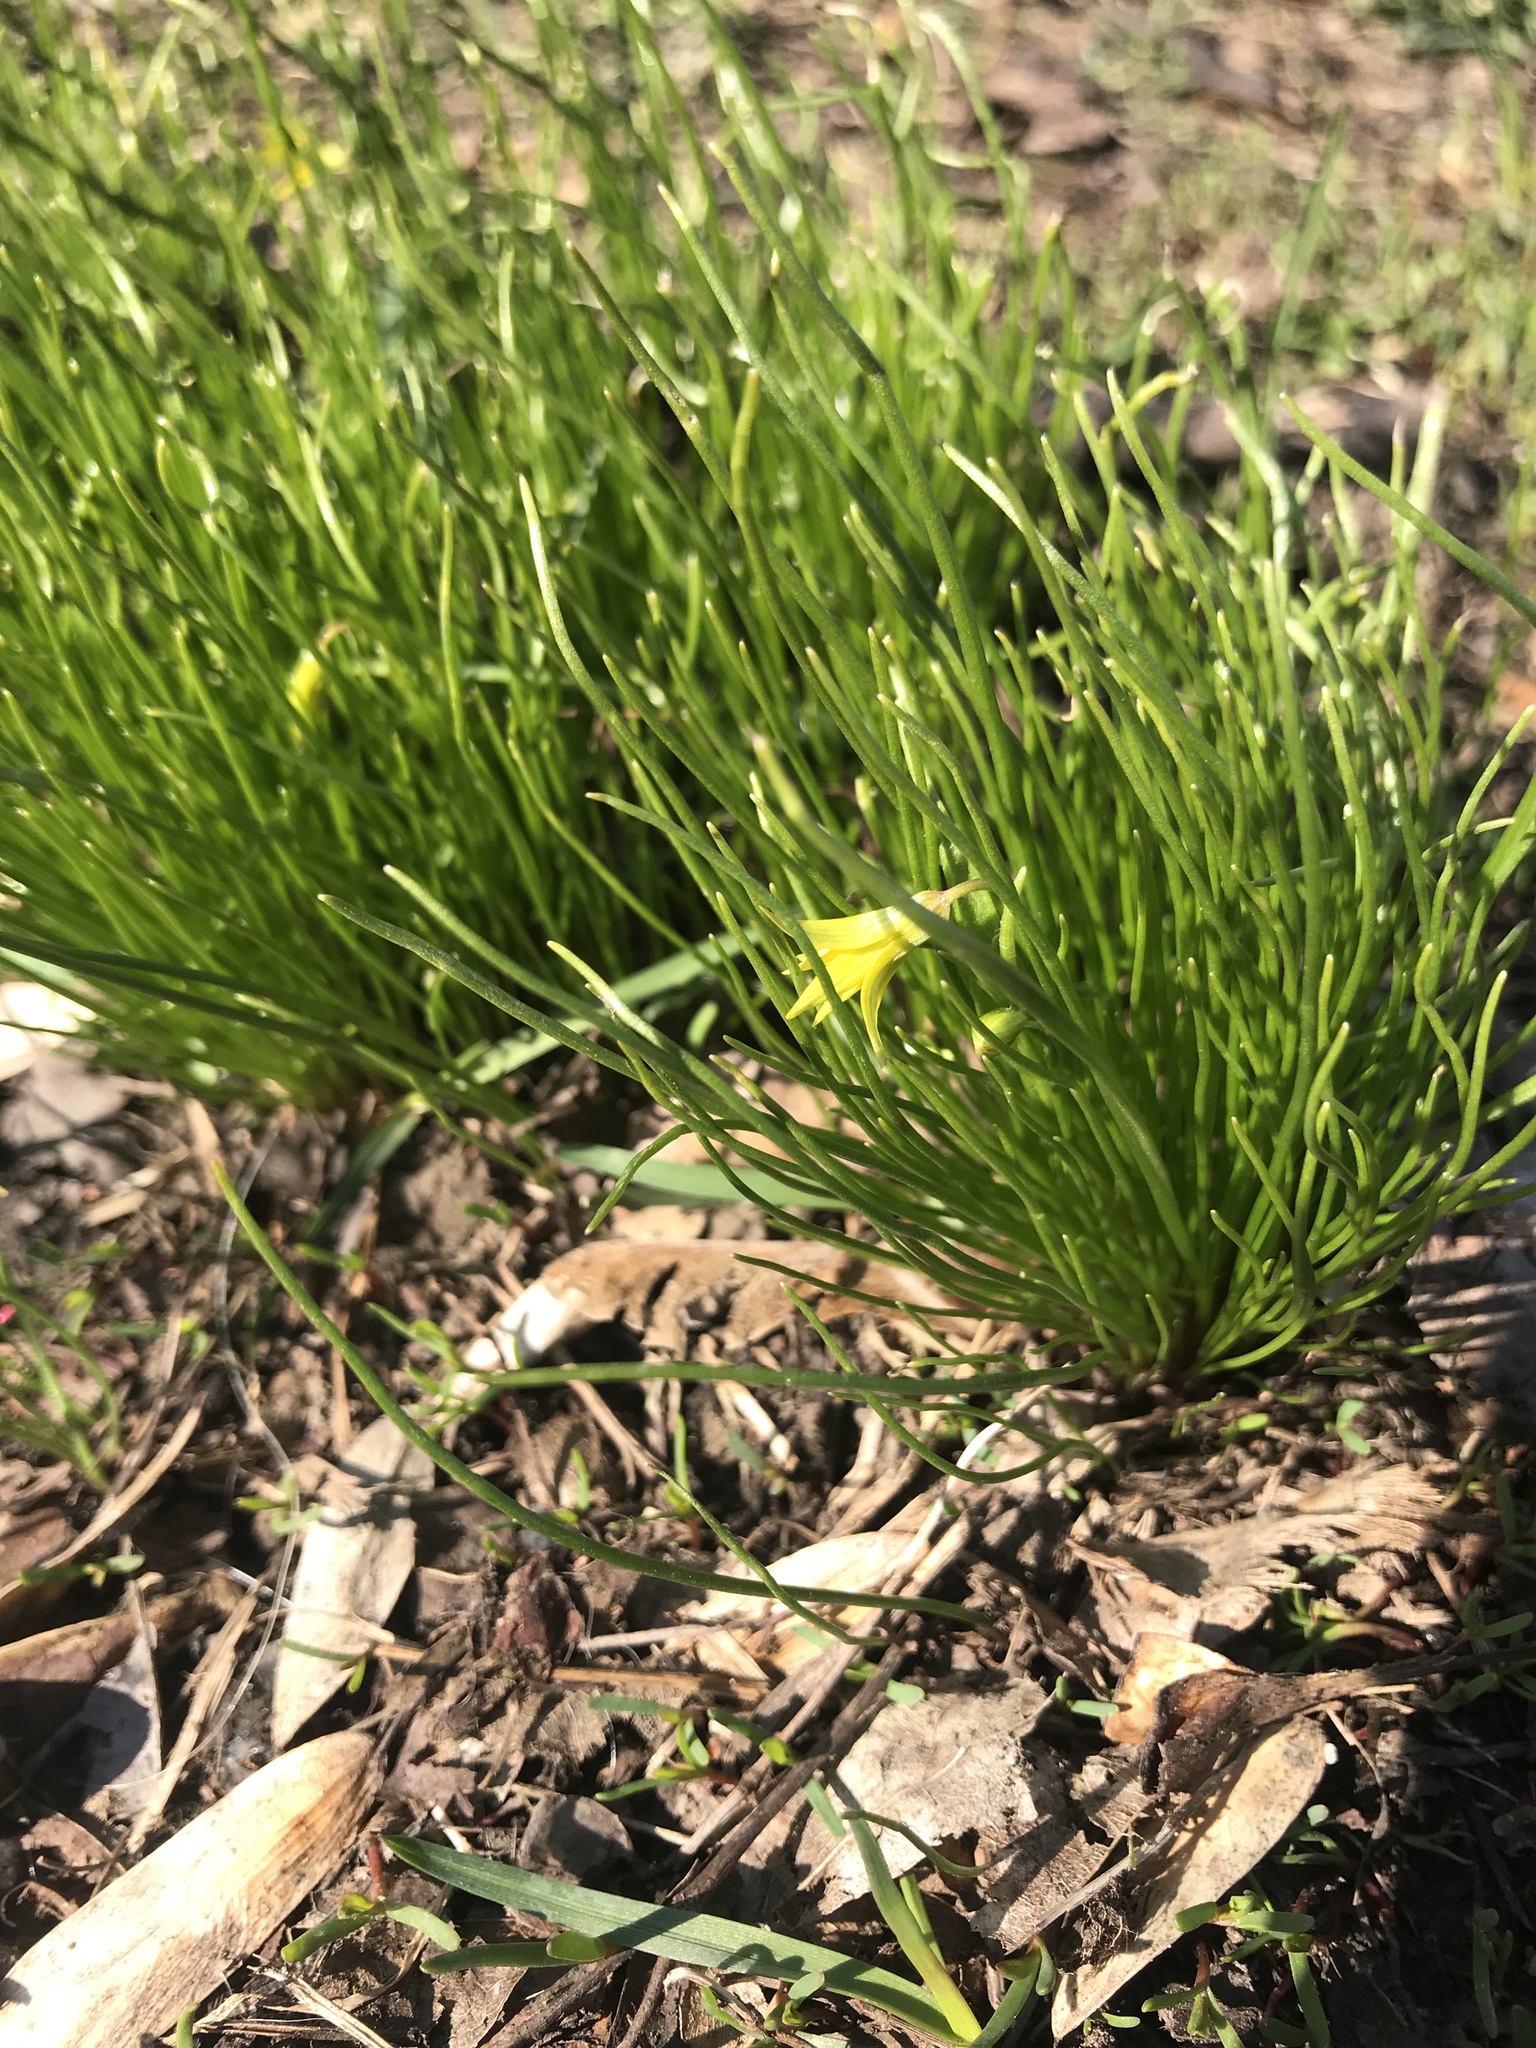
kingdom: Plantae
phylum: Tracheophyta
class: Liliopsida
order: Liliales
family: Liliaceae
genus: Gagea
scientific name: Gagea minima
